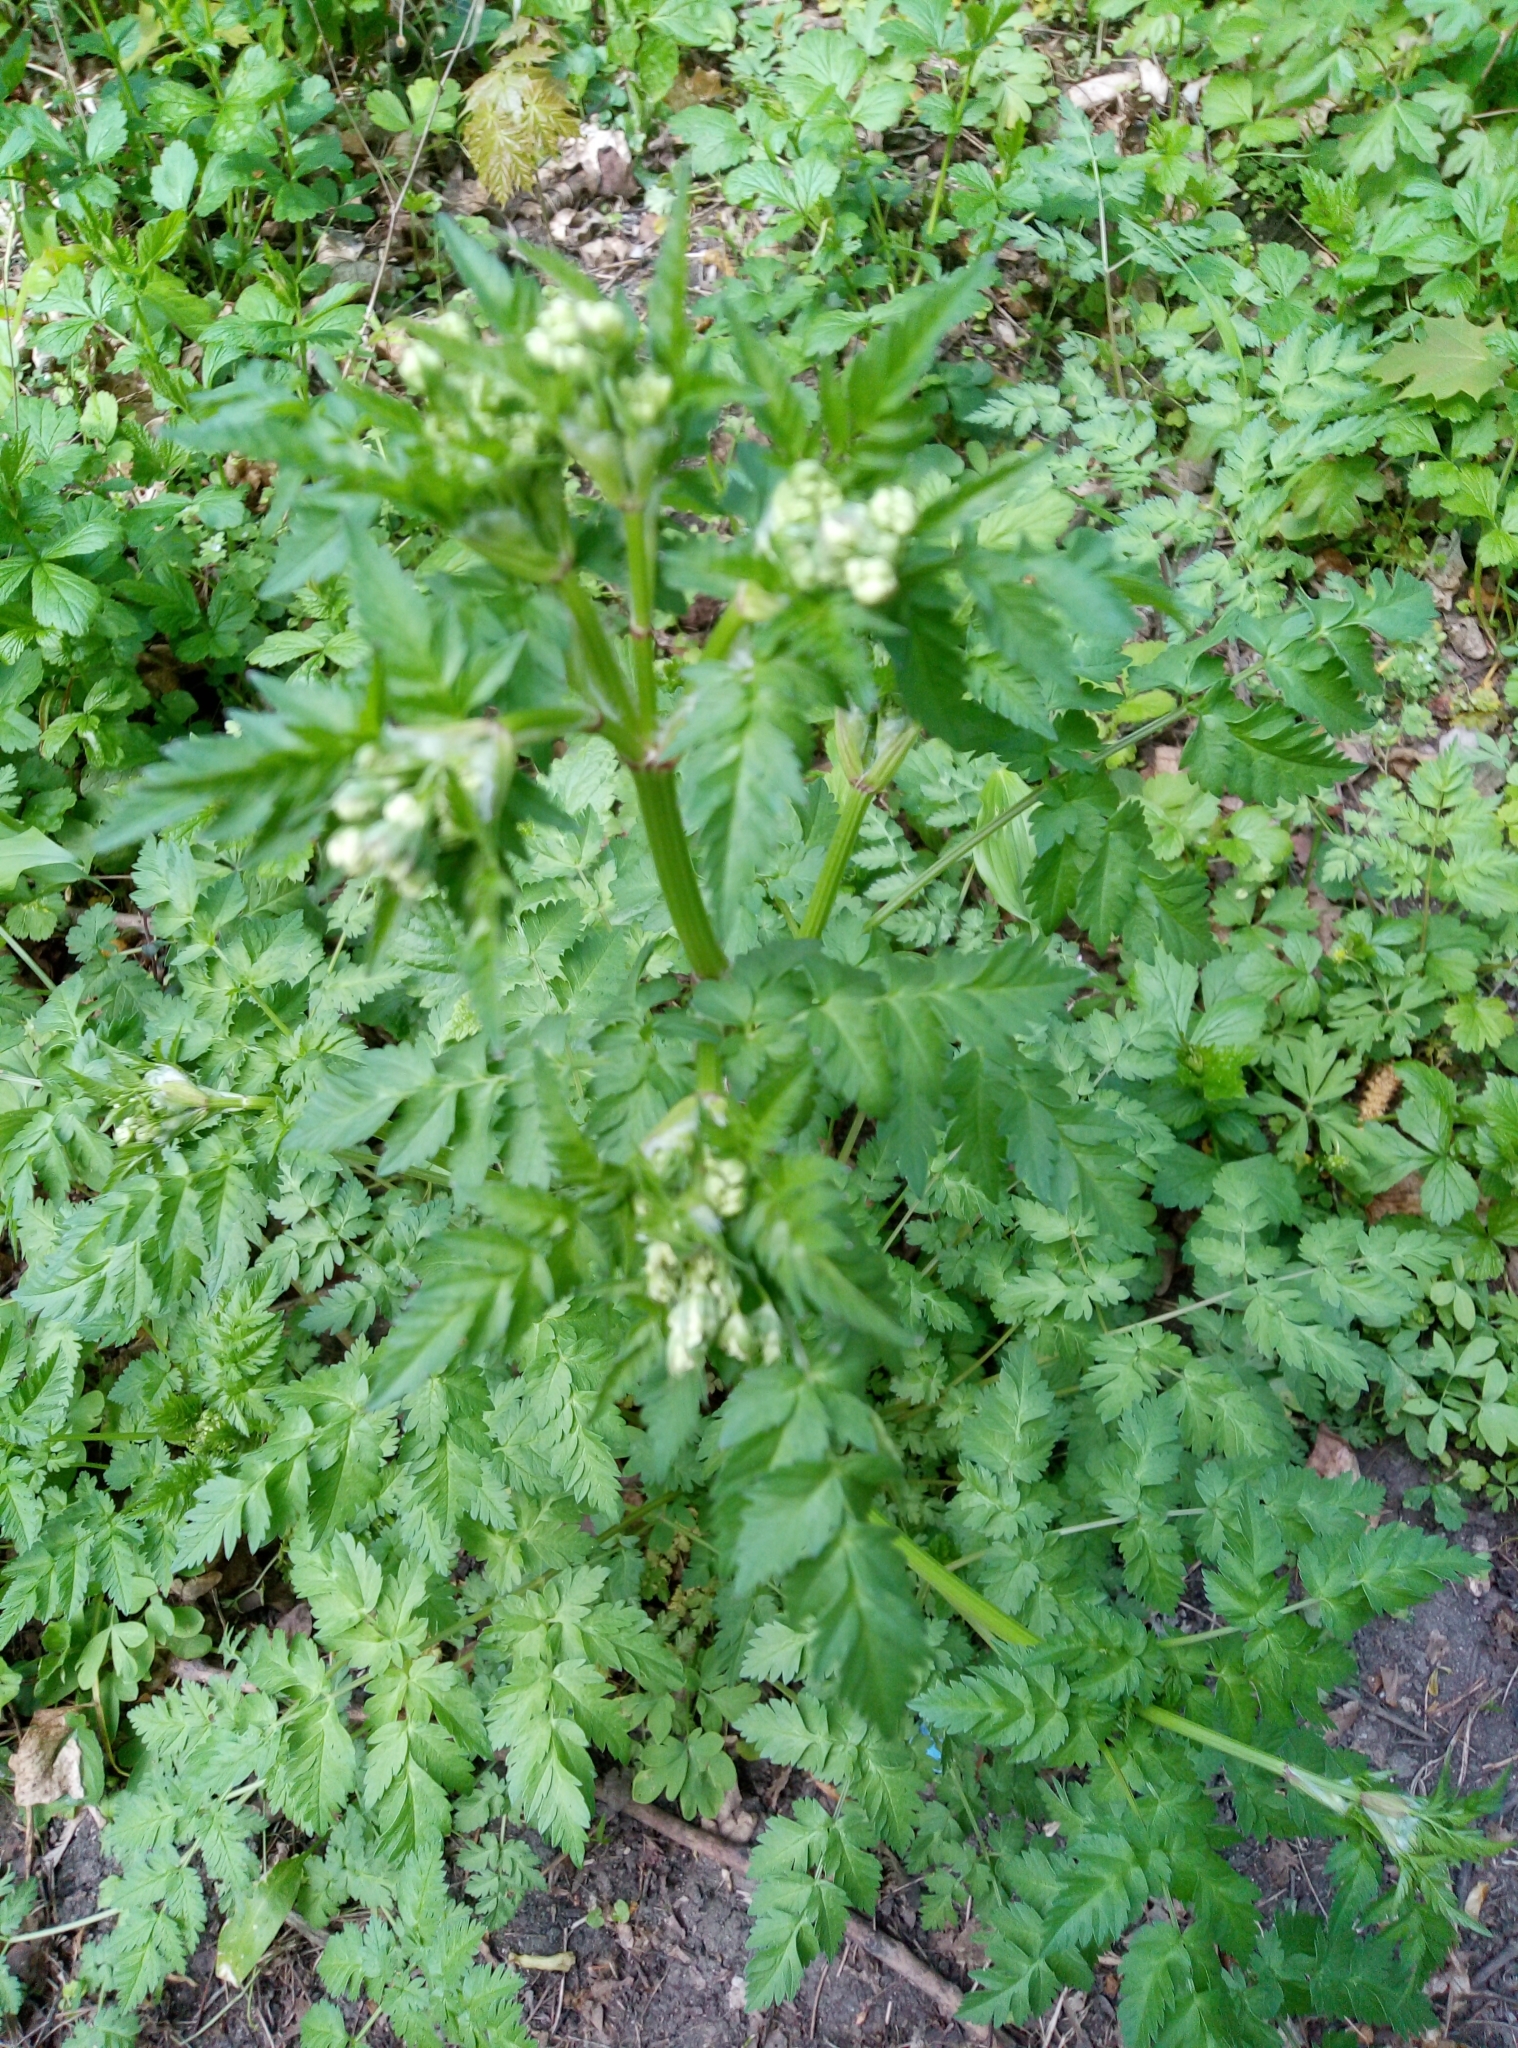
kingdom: Plantae
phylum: Tracheophyta
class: Magnoliopsida
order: Apiales
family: Apiaceae
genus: Anthriscus
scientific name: Anthriscus sylvestris
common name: Cow parsley
